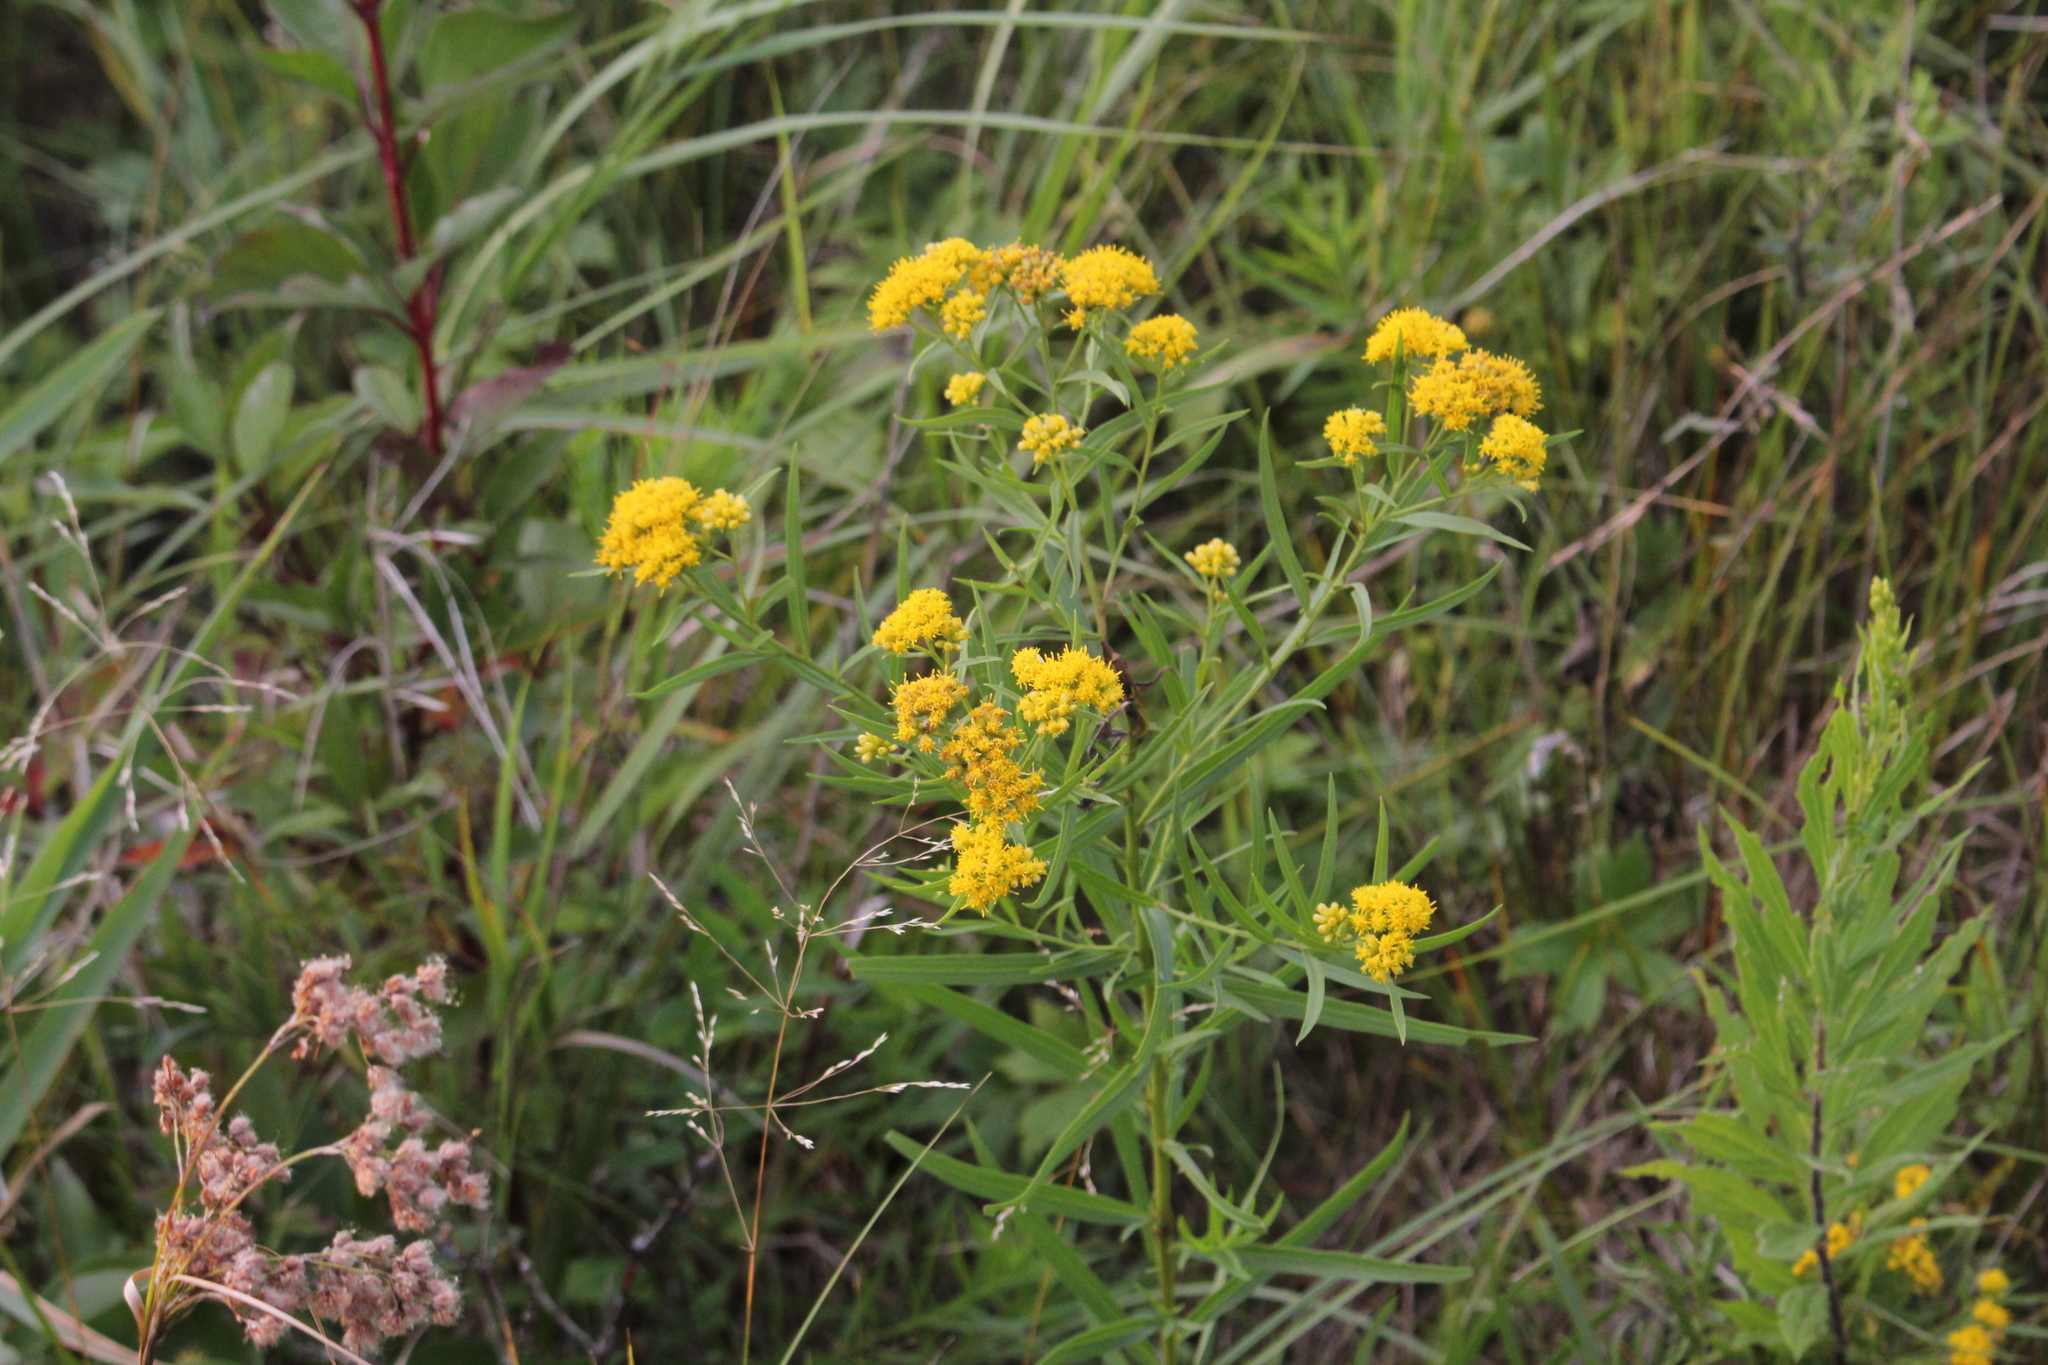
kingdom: Plantae
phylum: Tracheophyta
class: Magnoliopsida
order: Asterales
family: Asteraceae
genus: Euthamia
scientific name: Euthamia graminifolia
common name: Common goldentop
